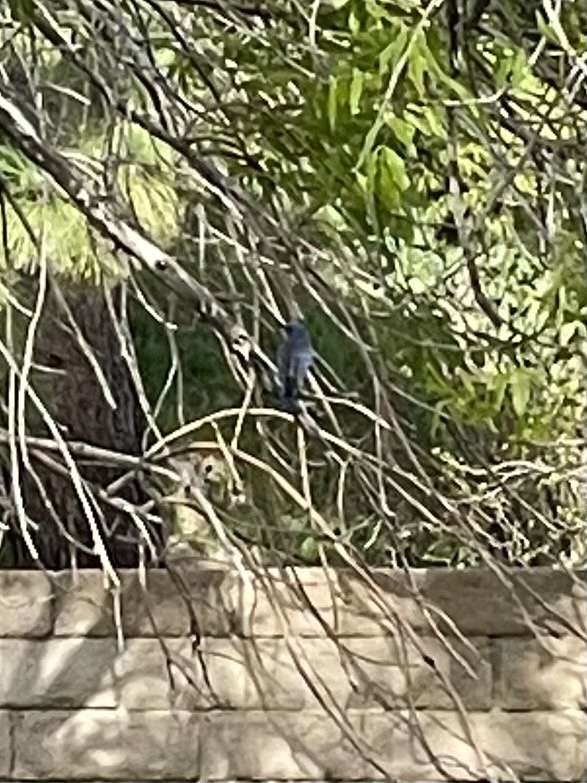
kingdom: Animalia
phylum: Chordata
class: Aves
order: Passeriformes
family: Turdidae
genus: Sialia
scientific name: Sialia mexicana
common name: Western bluebird
